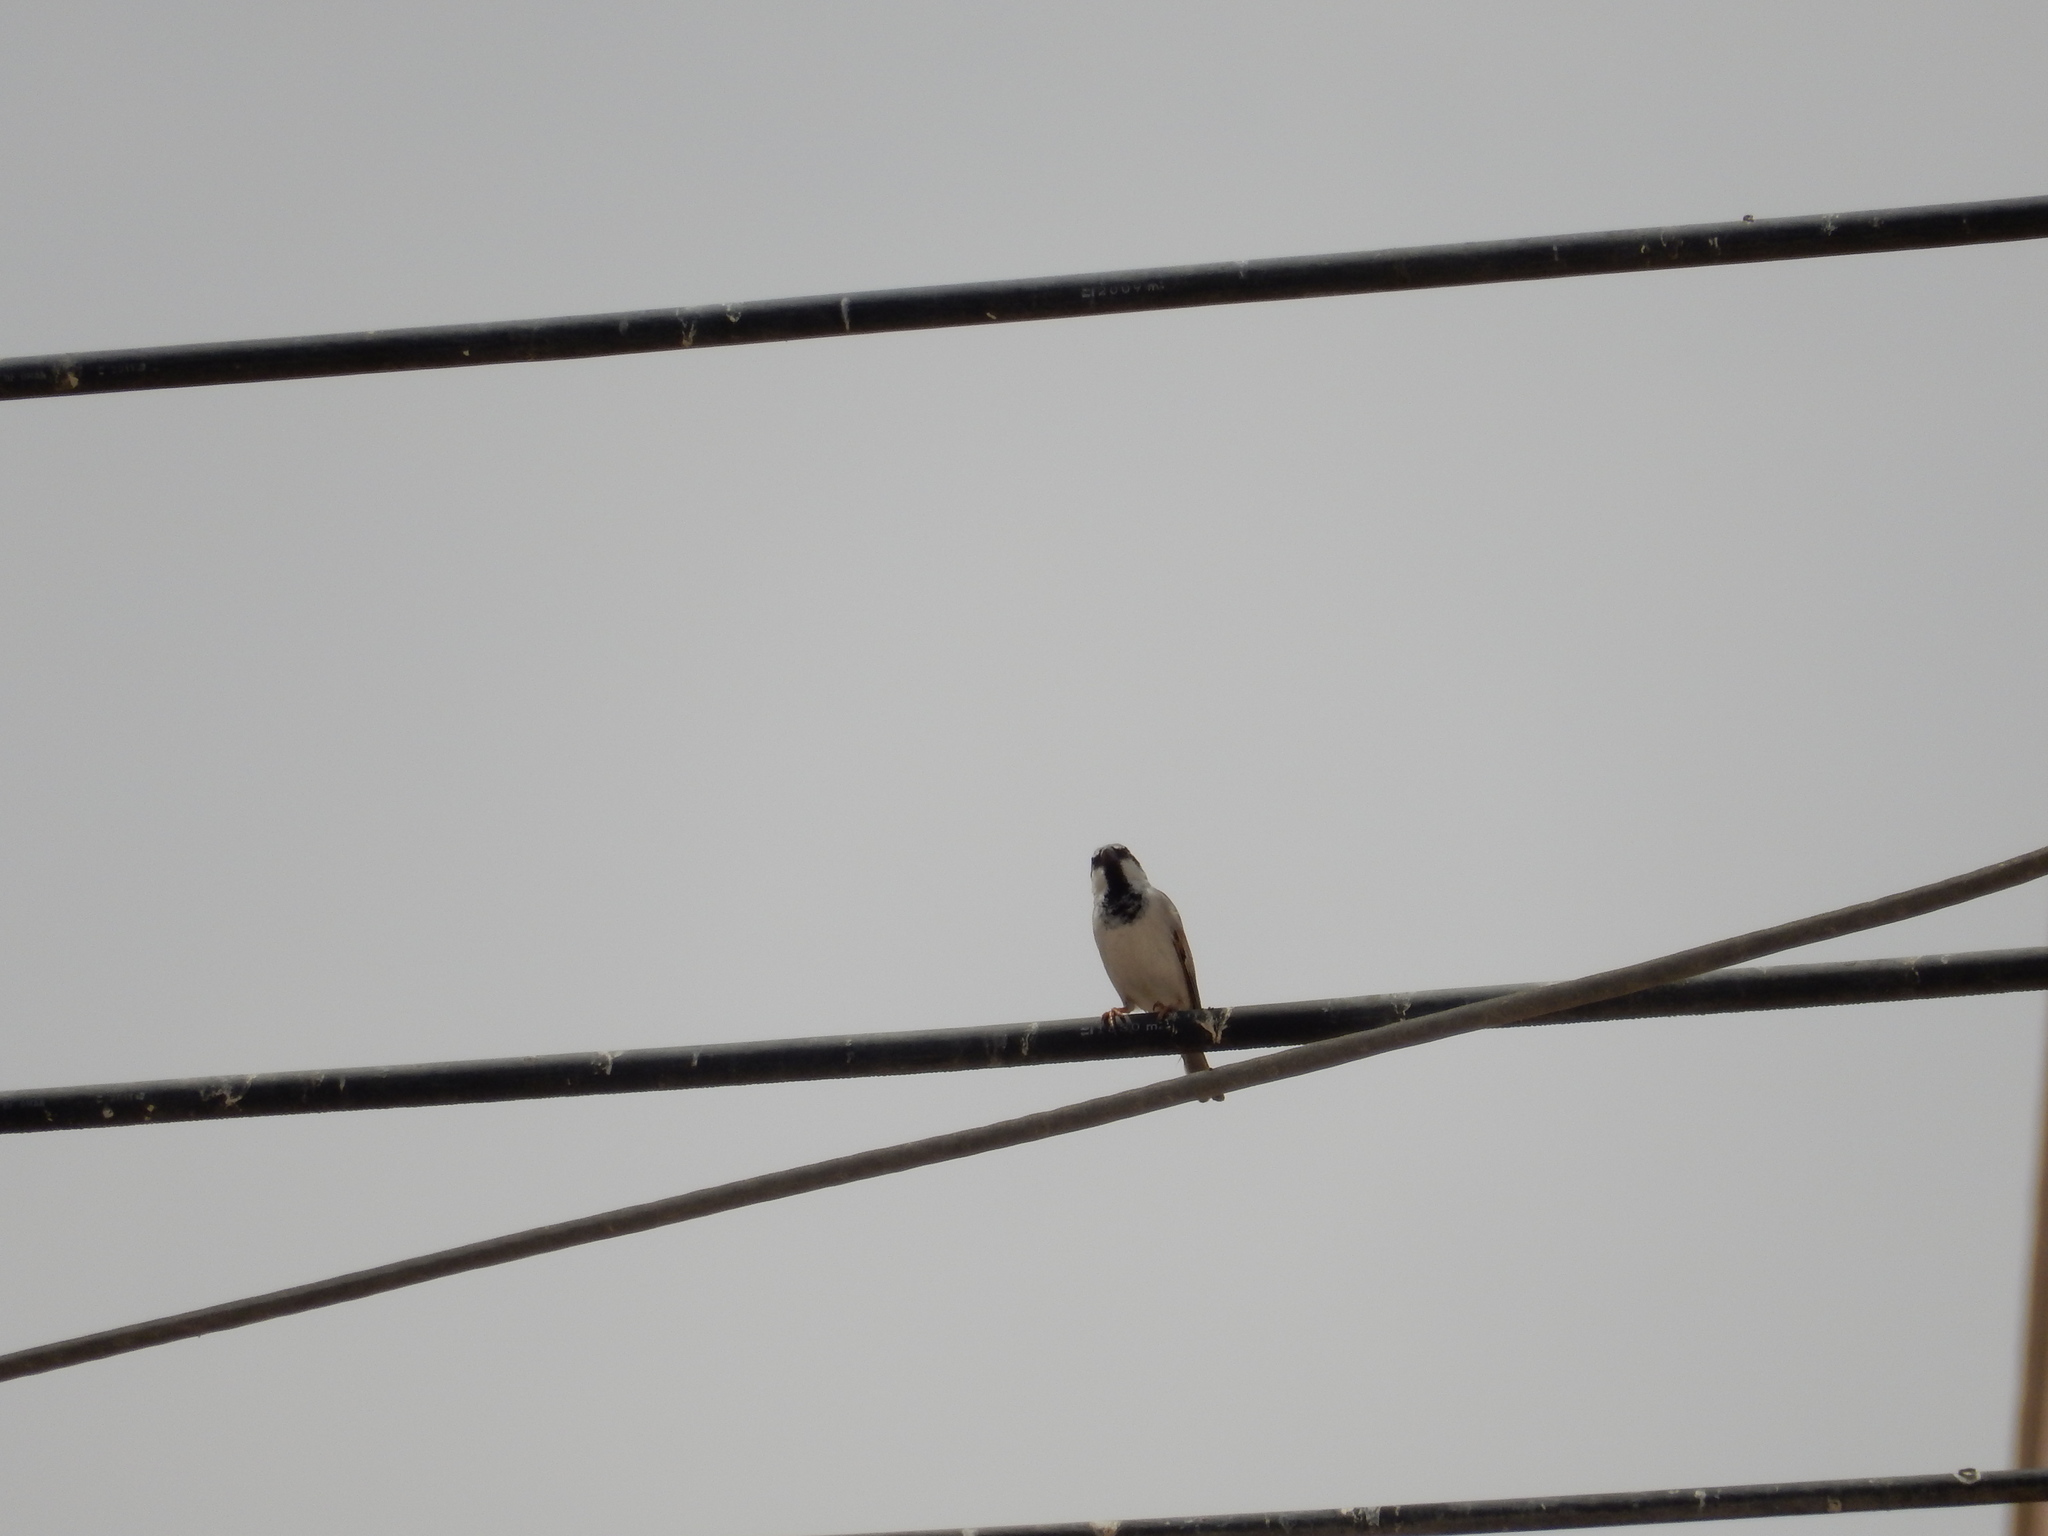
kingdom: Animalia
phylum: Chordata
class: Aves
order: Passeriformes
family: Passeridae
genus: Passer
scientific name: Passer domesticus
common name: House sparrow
